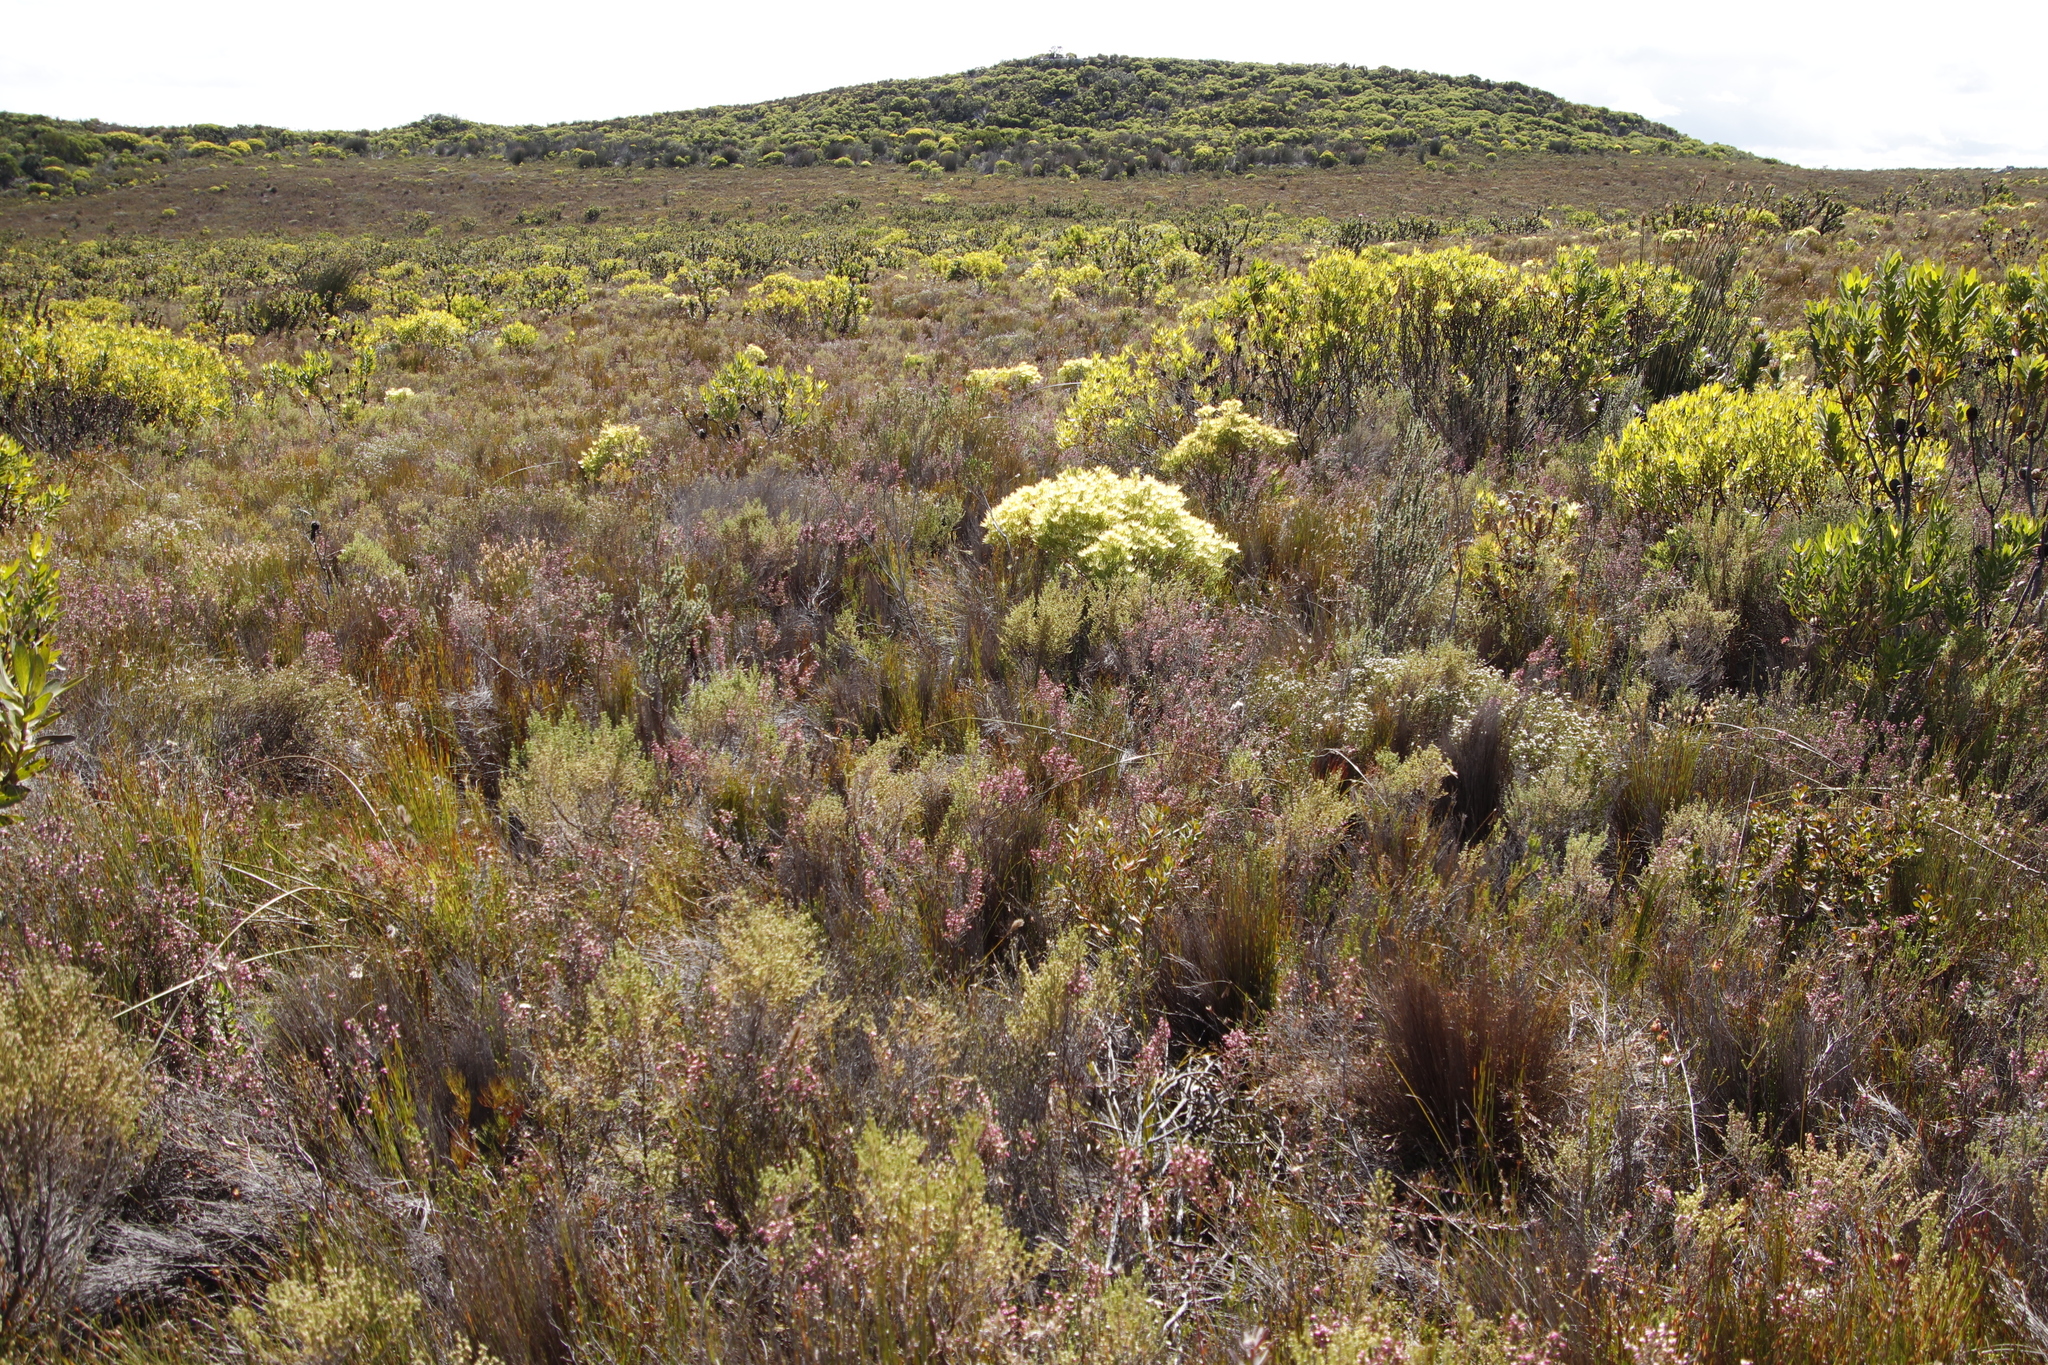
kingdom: Plantae
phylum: Tracheophyta
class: Magnoliopsida
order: Proteales
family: Proteaceae
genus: Leucadendron
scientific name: Leucadendron xanthoconus
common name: Sickle-leaf conebush
